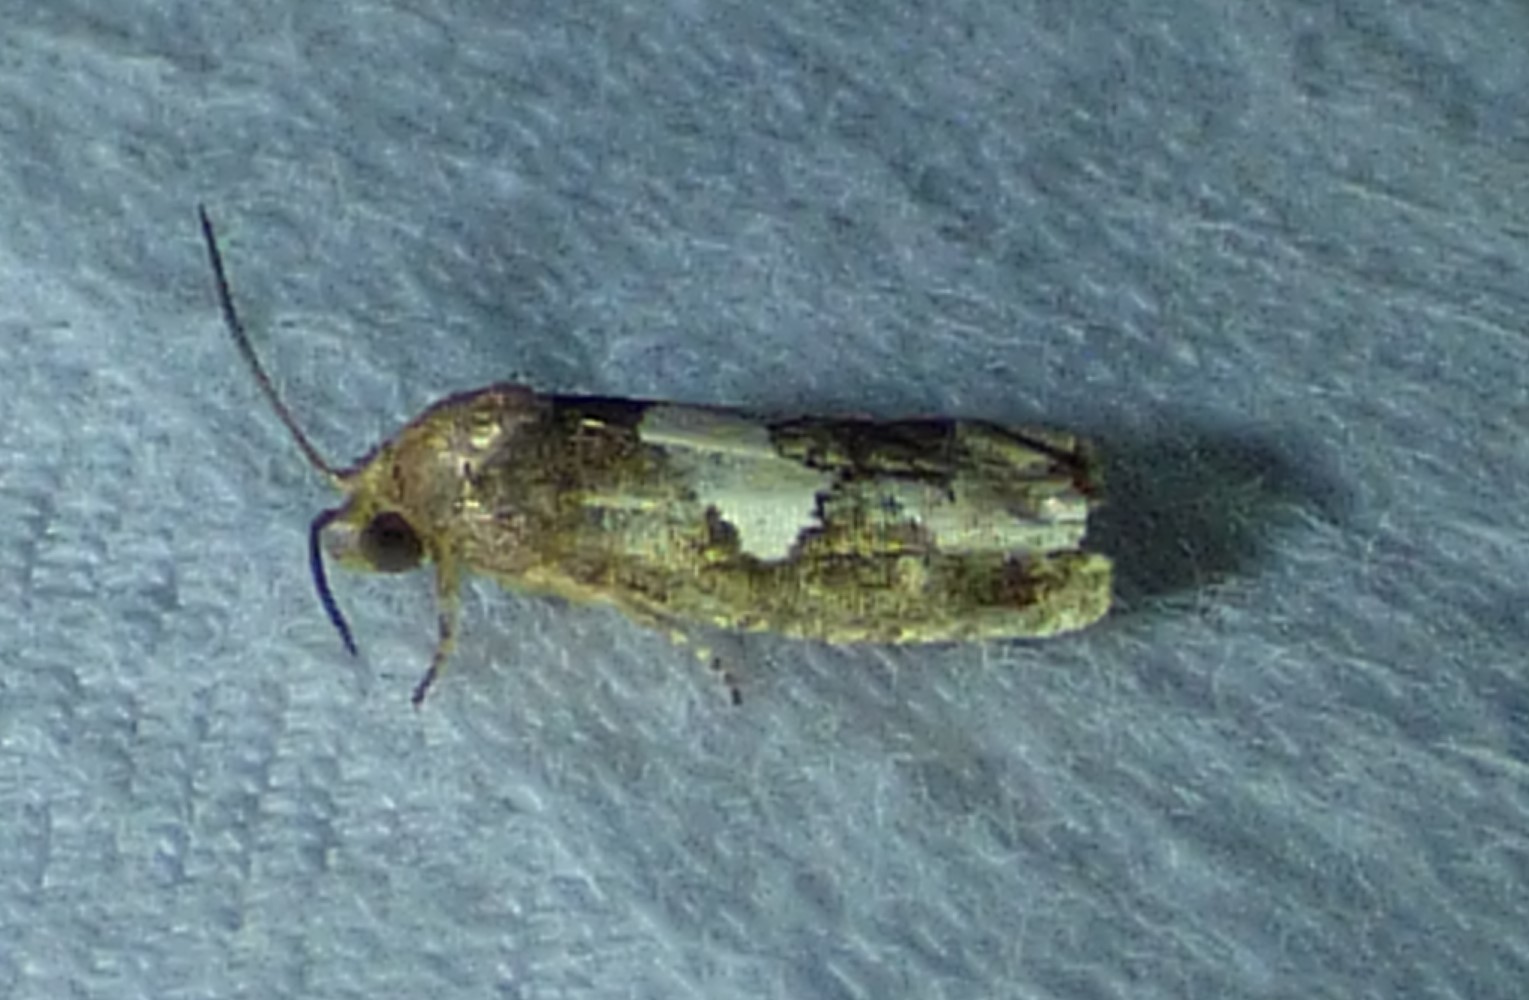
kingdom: Animalia
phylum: Arthropoda
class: Insecta
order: Lepidoptera
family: Tortricidae
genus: Epiblema
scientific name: Epiblema otiosana
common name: Bidens borer moth
